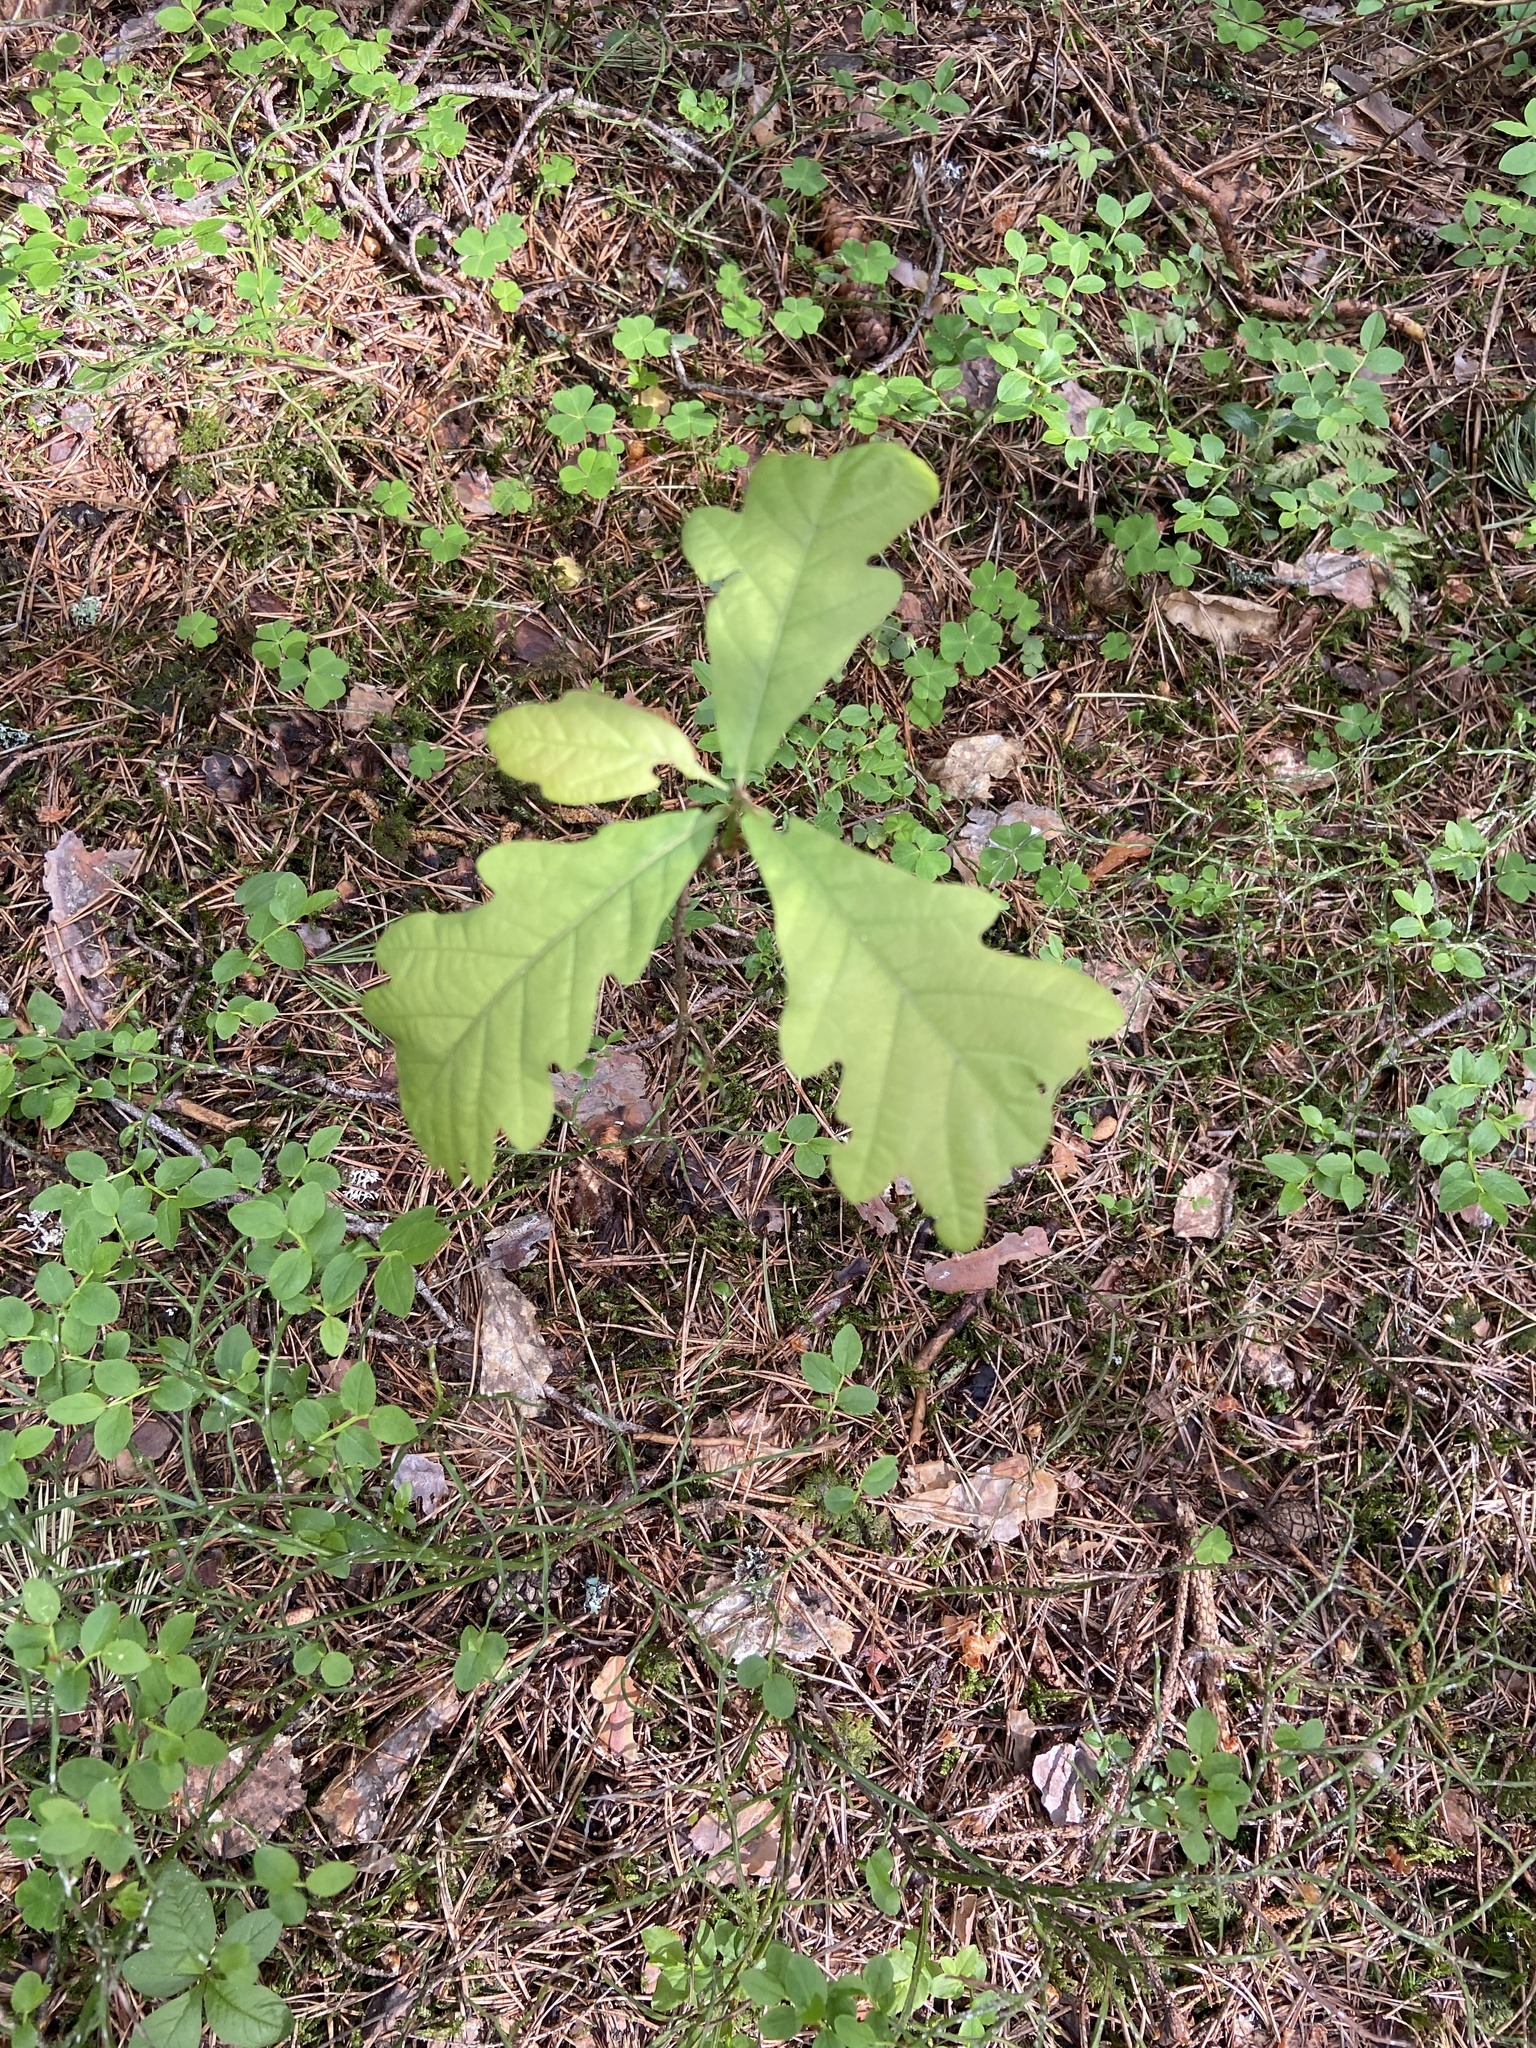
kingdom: Plantae
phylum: Tracheophyta
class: Magnoliopsida
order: Fagales
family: Fagaceae
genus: Quercus
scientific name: Quercus robur
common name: Pedunculate oak
